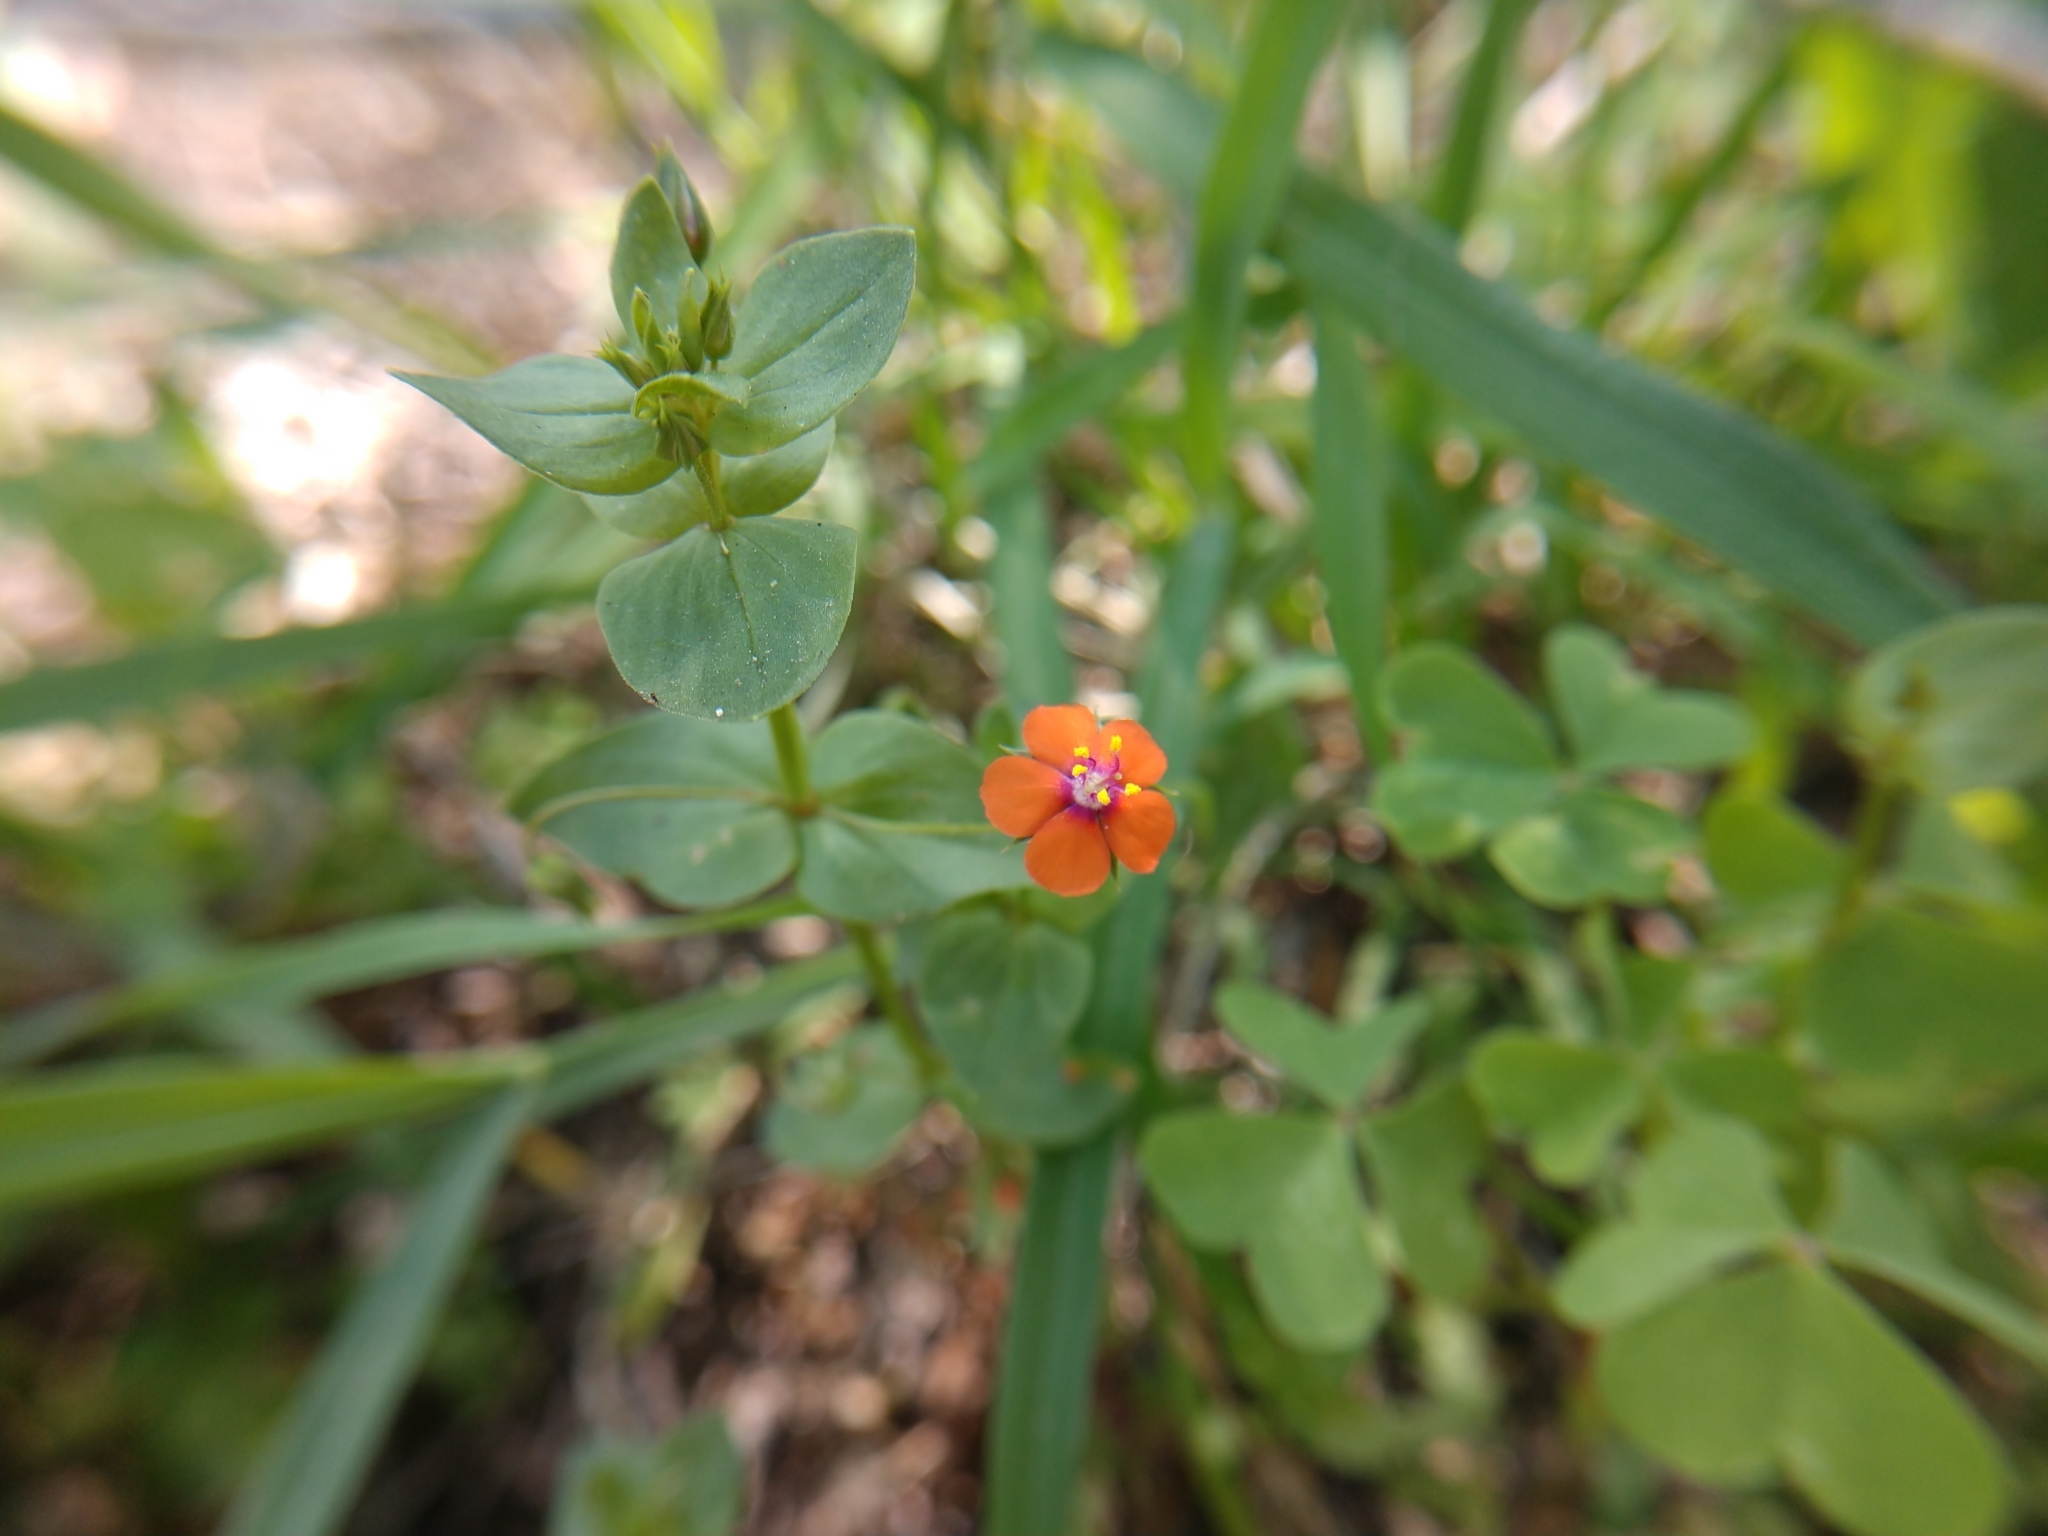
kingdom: Plantae
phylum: Tracheophyta
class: Magnoliopsida
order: Ericales
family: Primulaceae
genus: Lysimachia
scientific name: Lysimachia arvensis
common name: Scarlet pimpernel
